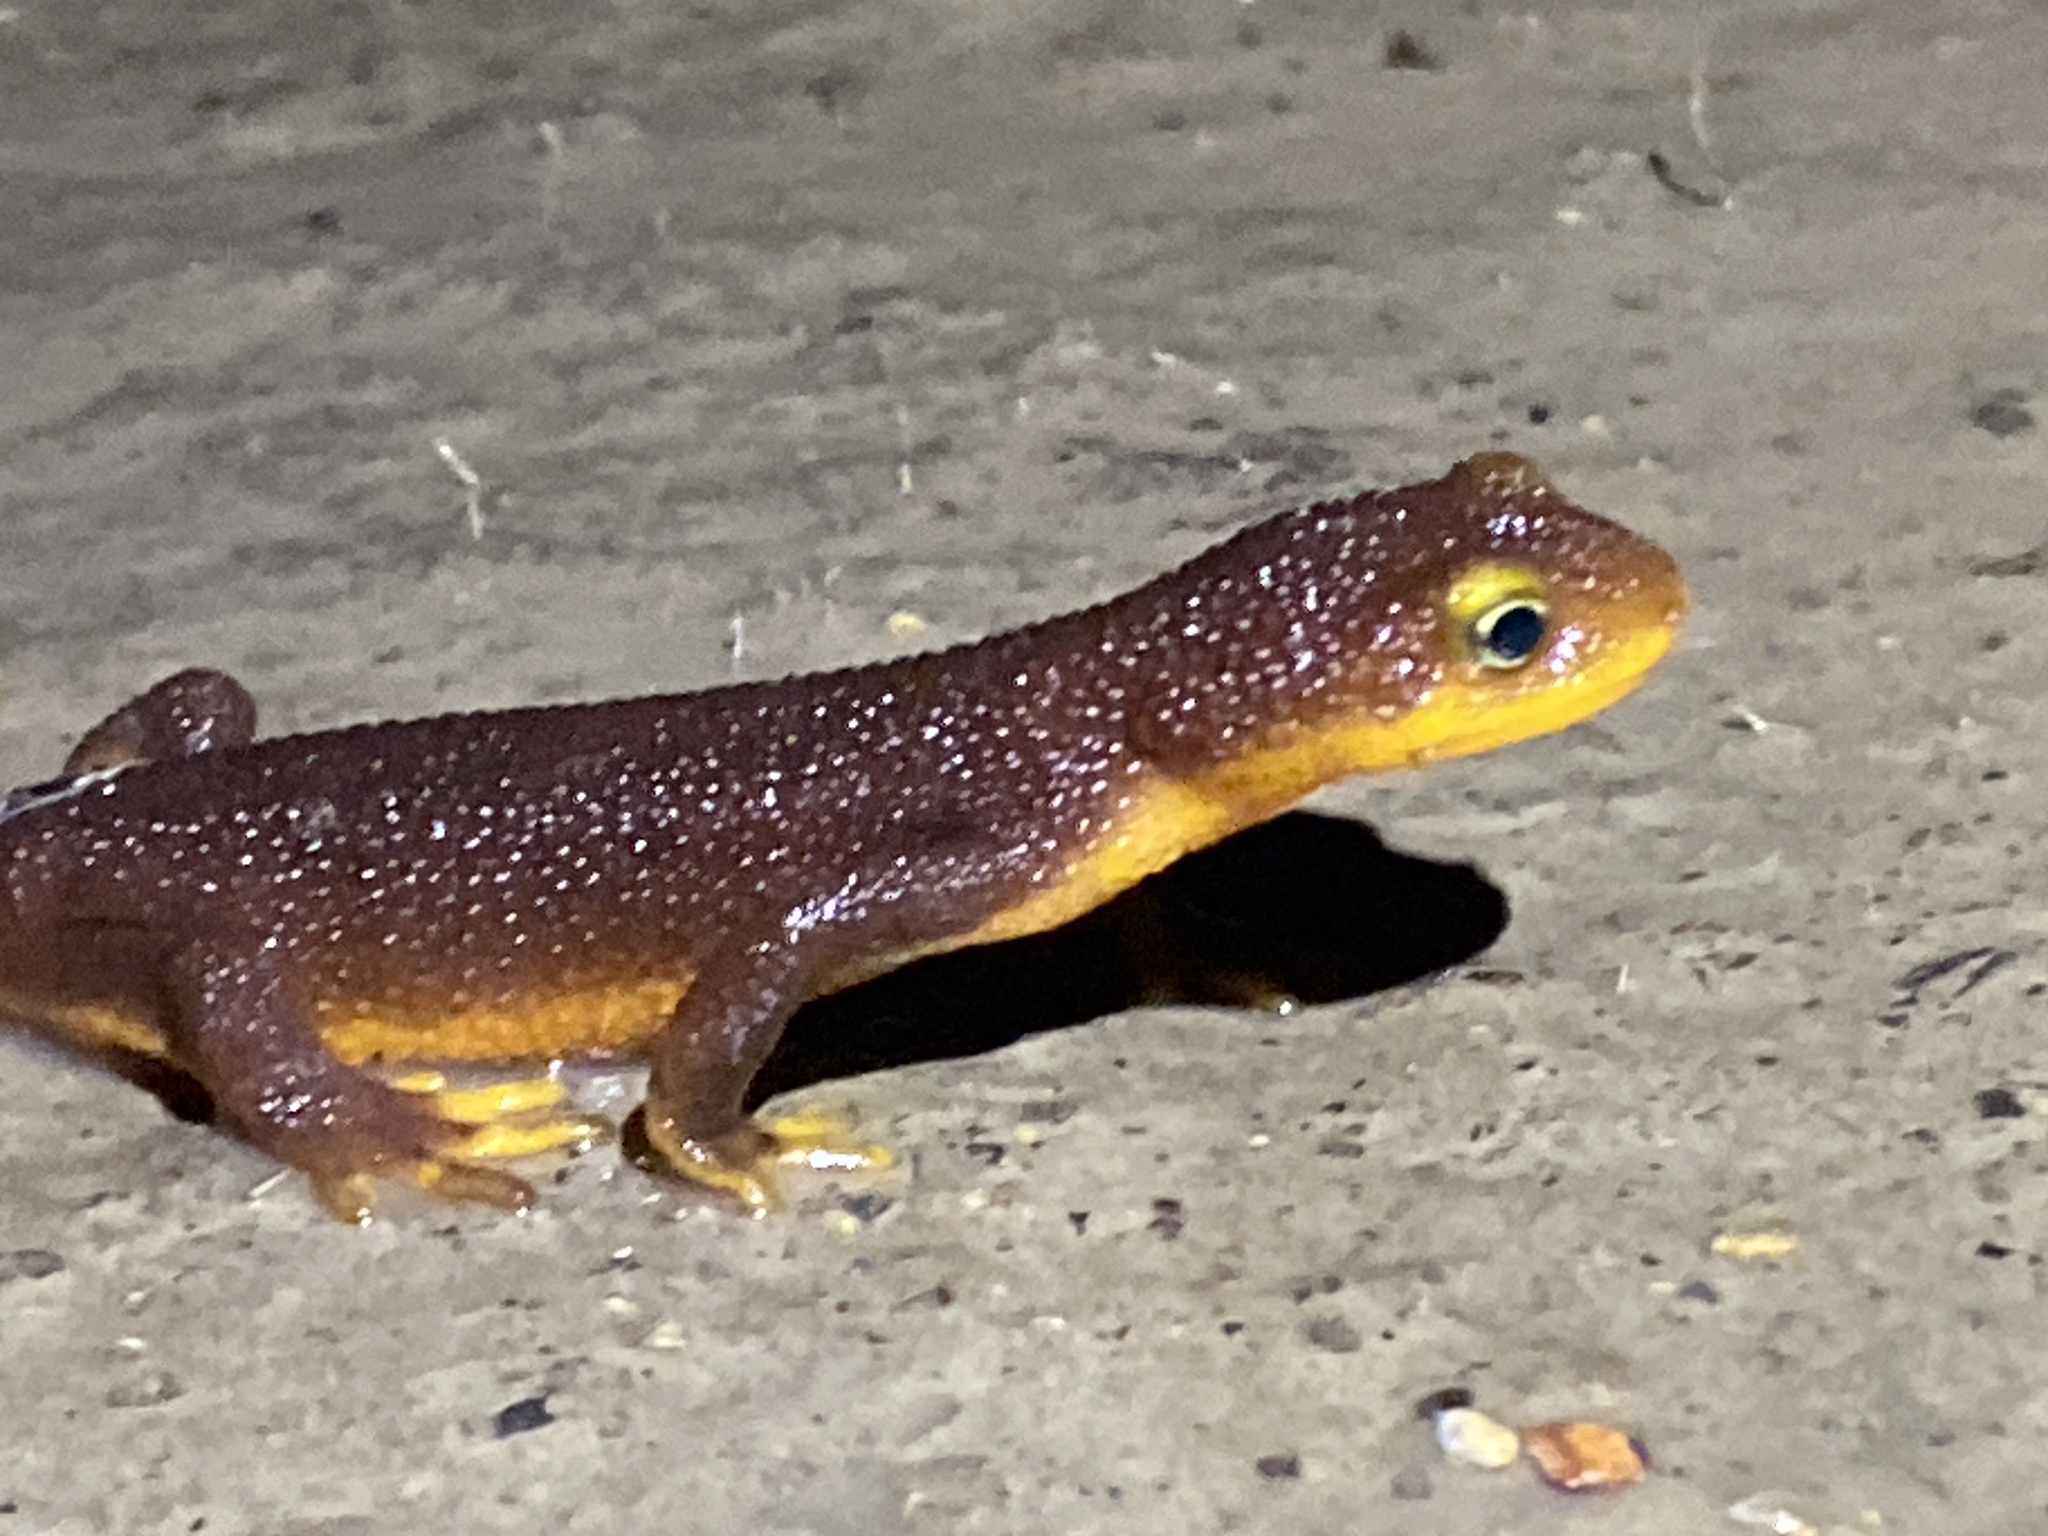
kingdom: Animalia
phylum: Chordata
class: Amphibia
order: Caudata
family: Salamandridae
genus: Taricha
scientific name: Taricha torosa
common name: California newt
